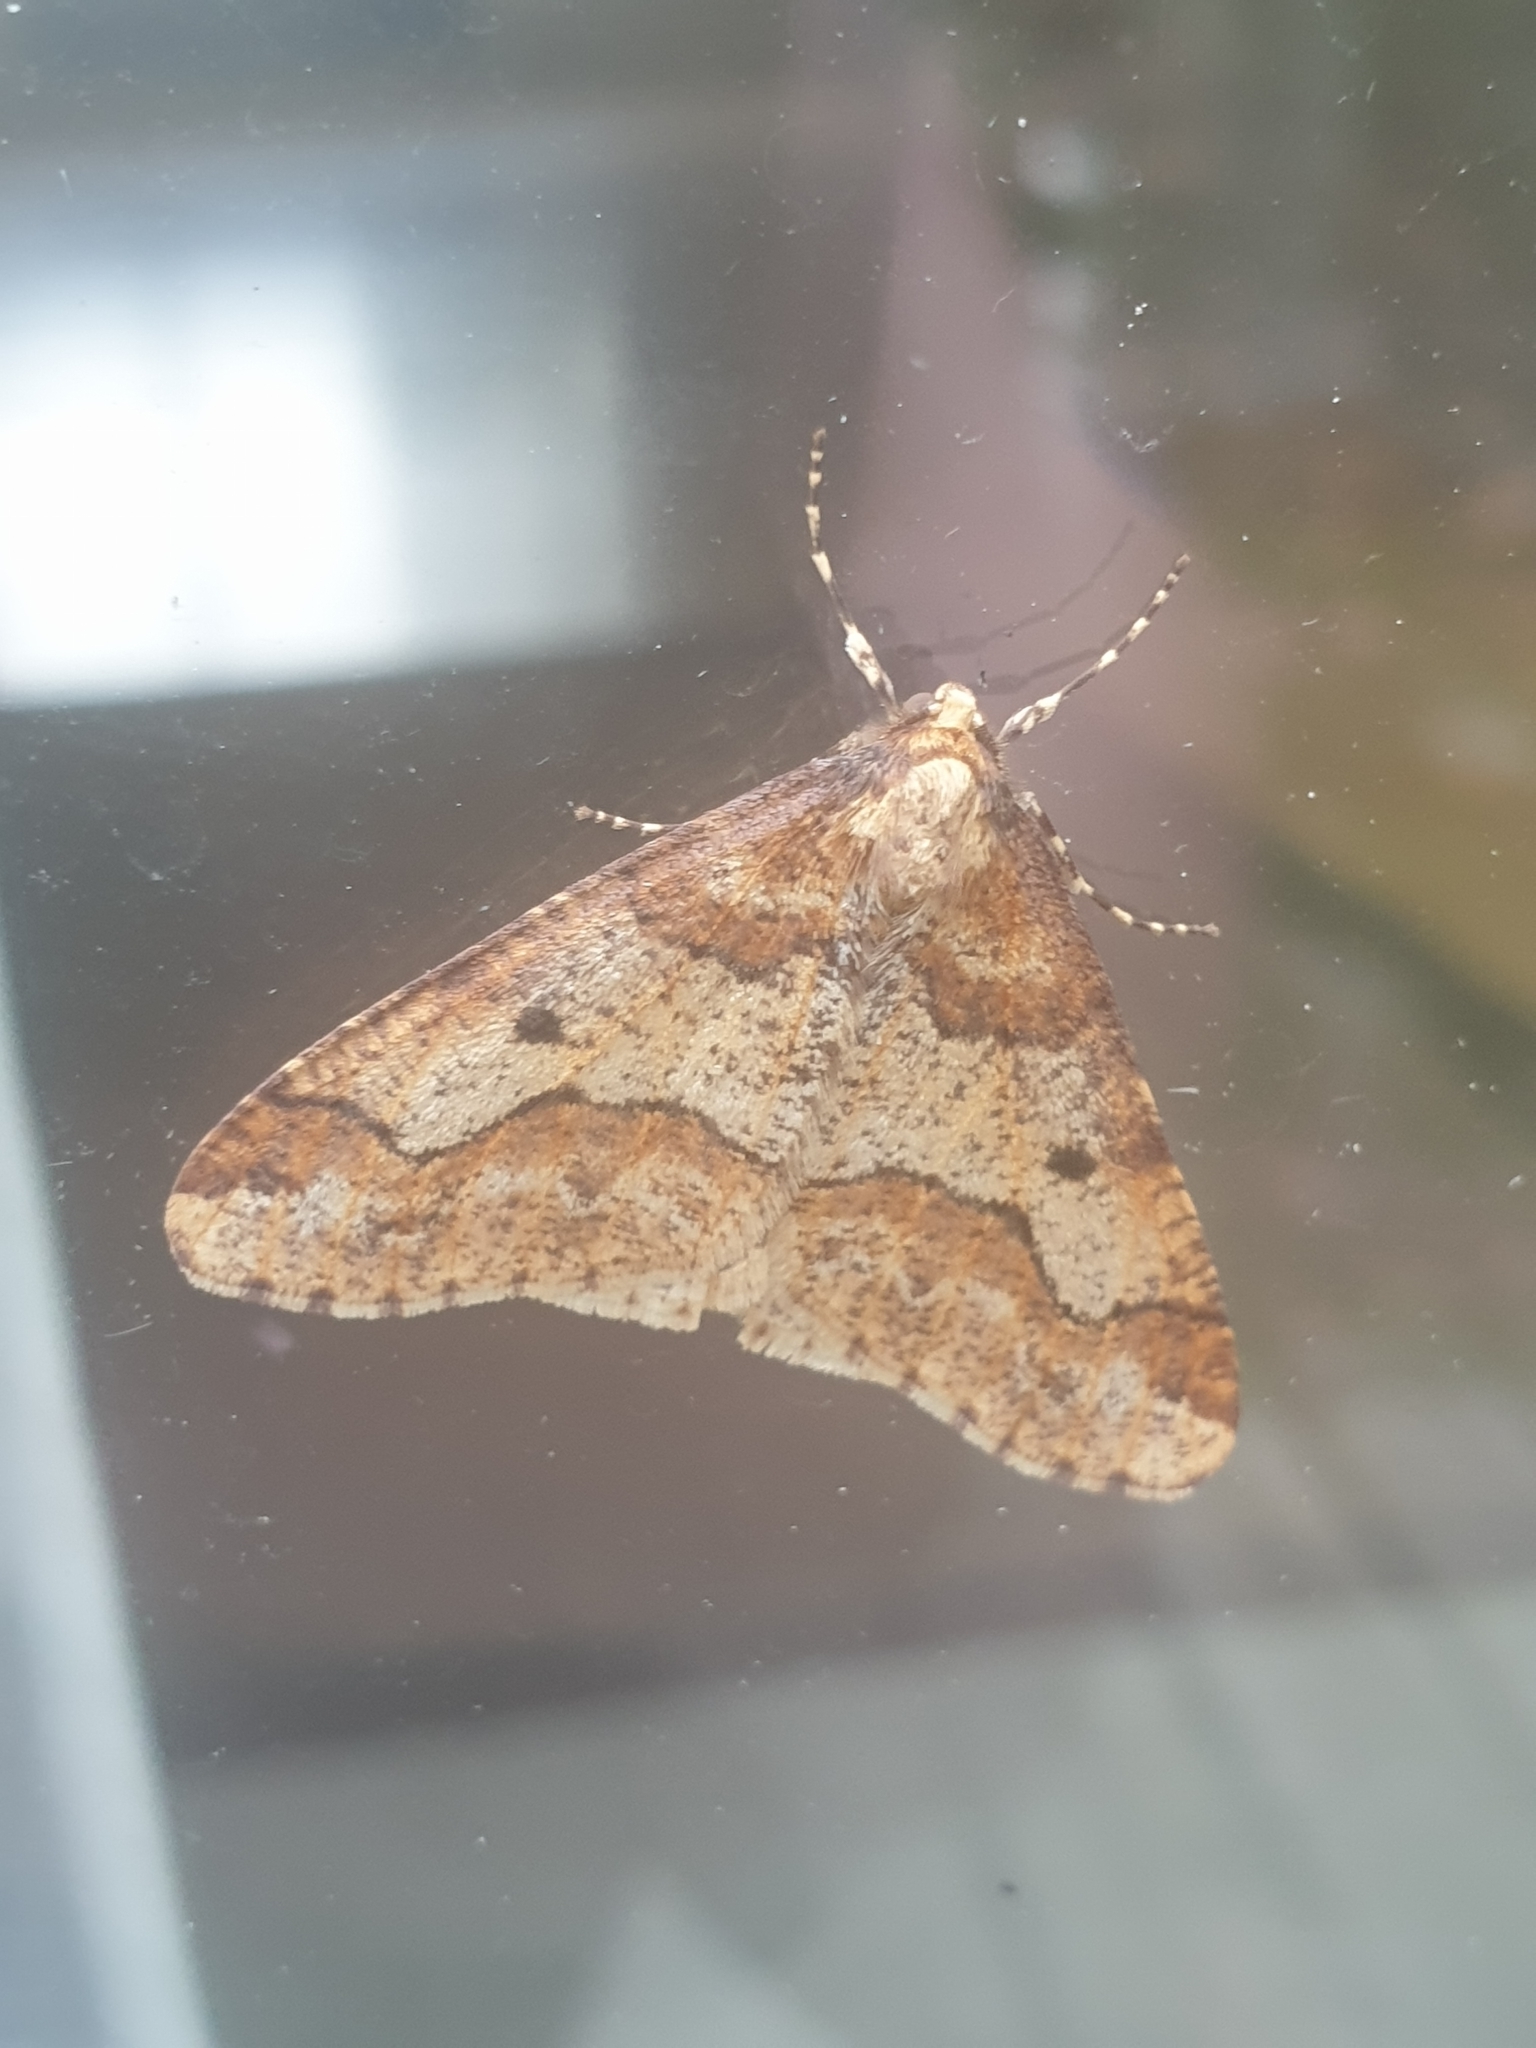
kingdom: Animalia
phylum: Arthropoda
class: Insecta
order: Lepidoptera
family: Geometridae
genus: Erannis
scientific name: Erannis defoliaria
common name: Mottled umber
